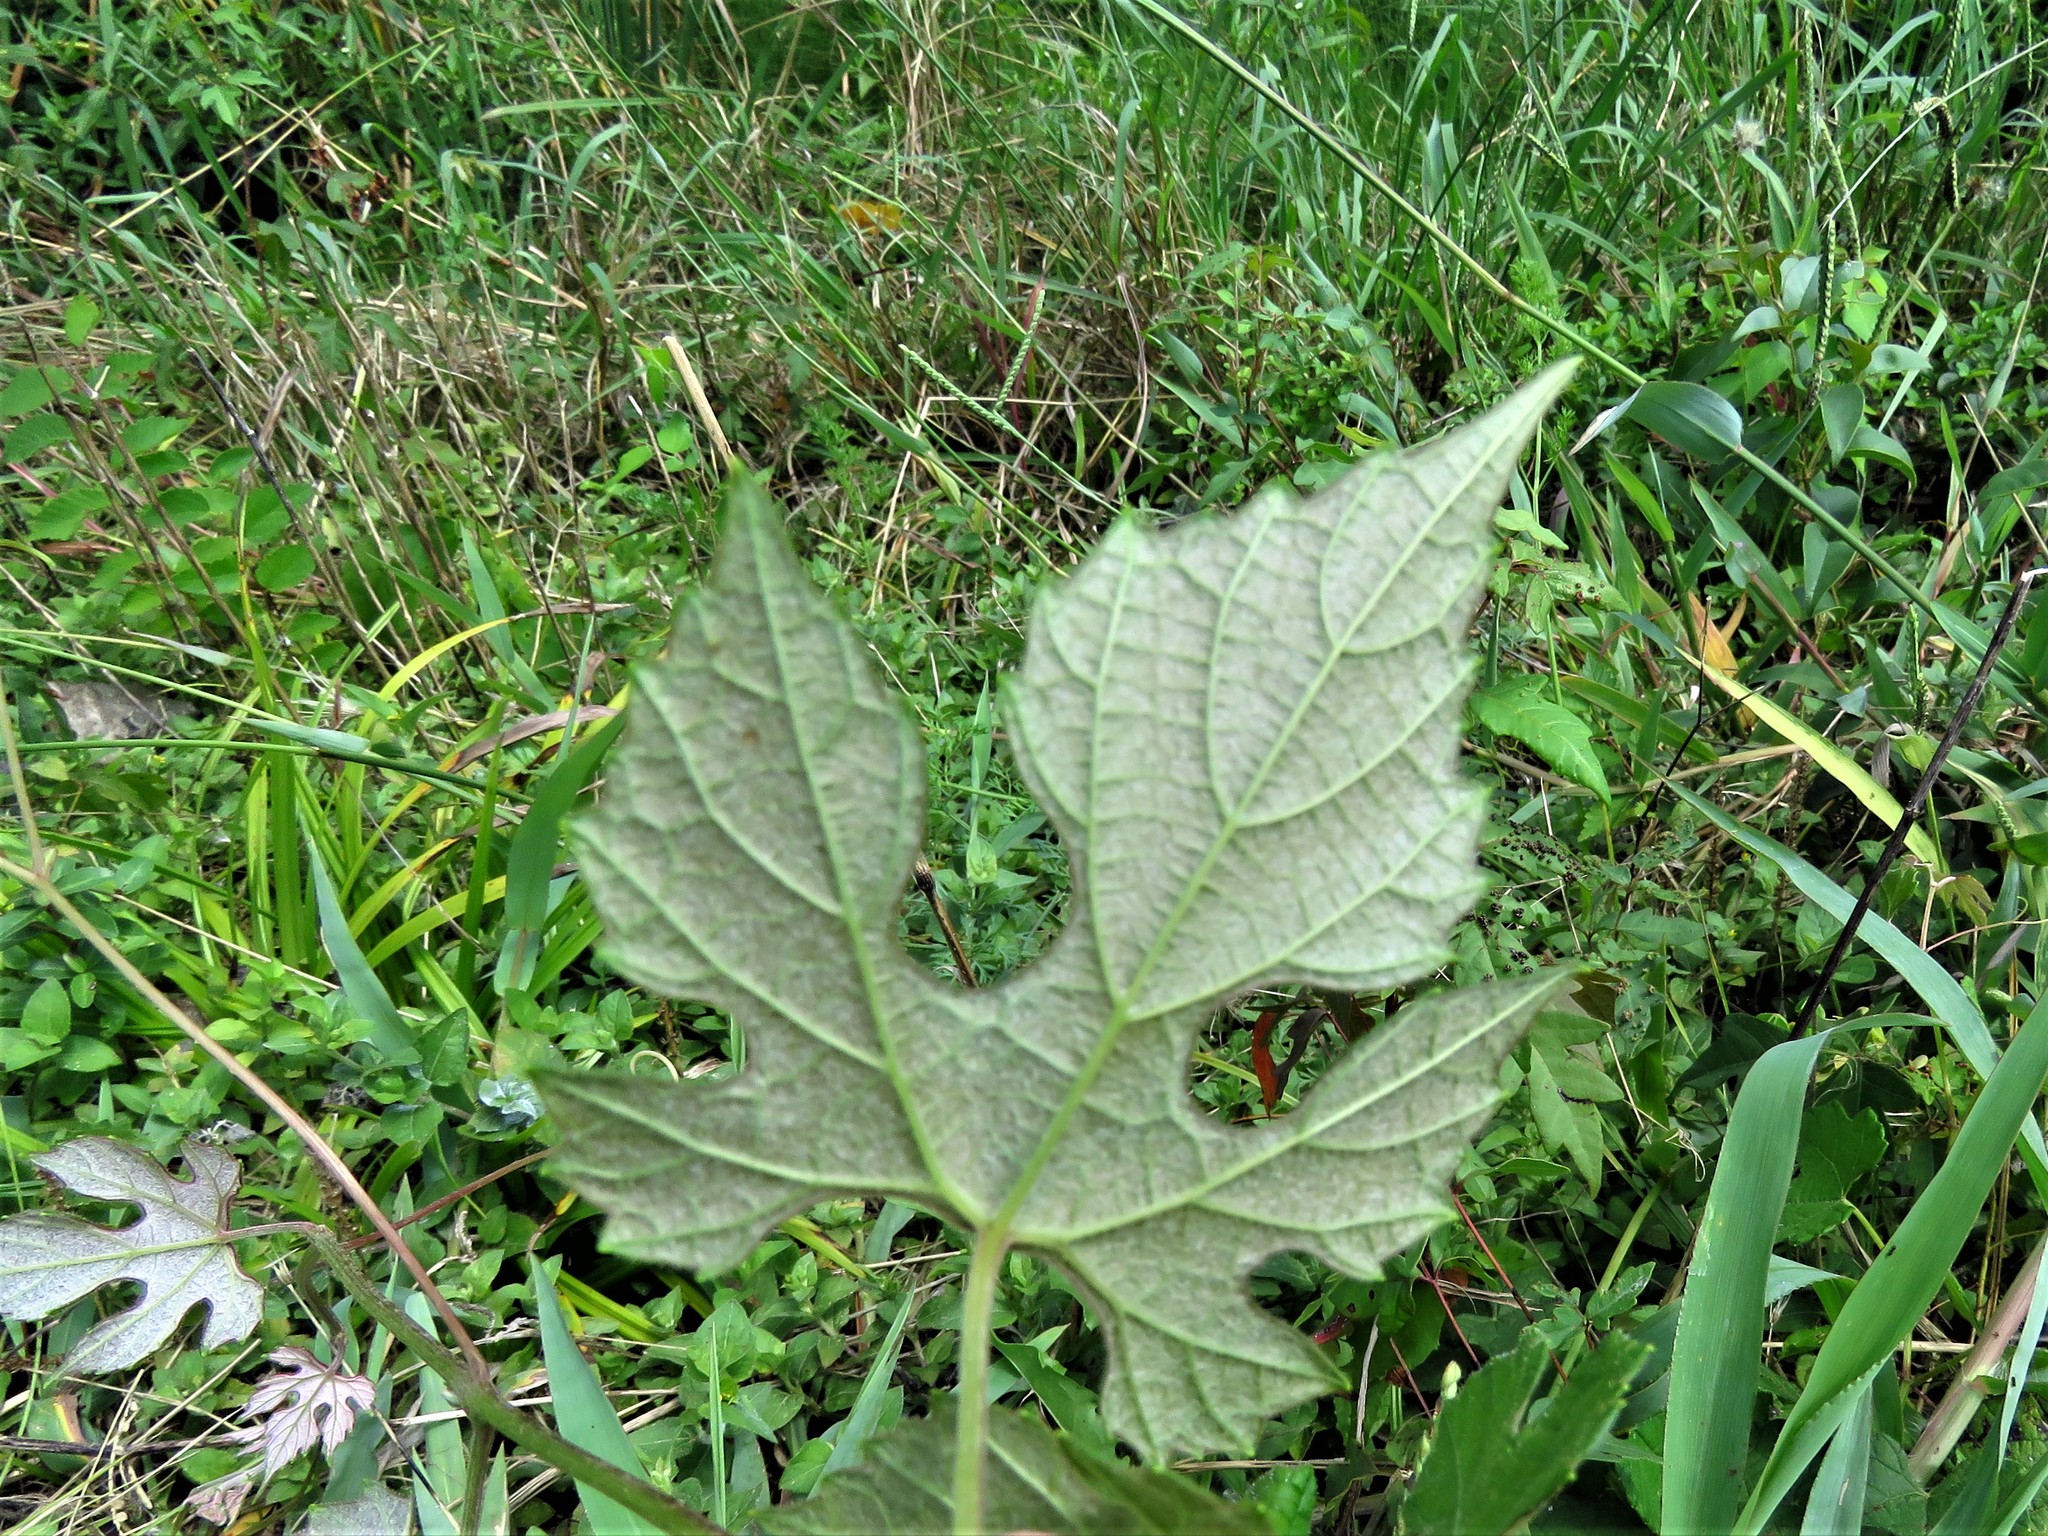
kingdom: Plantae
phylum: Tracheophyta
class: Magnoliopsida
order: Vitales
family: Vitaceae
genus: Vitis
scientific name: Vitis mustangensis
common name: Mustang grape
